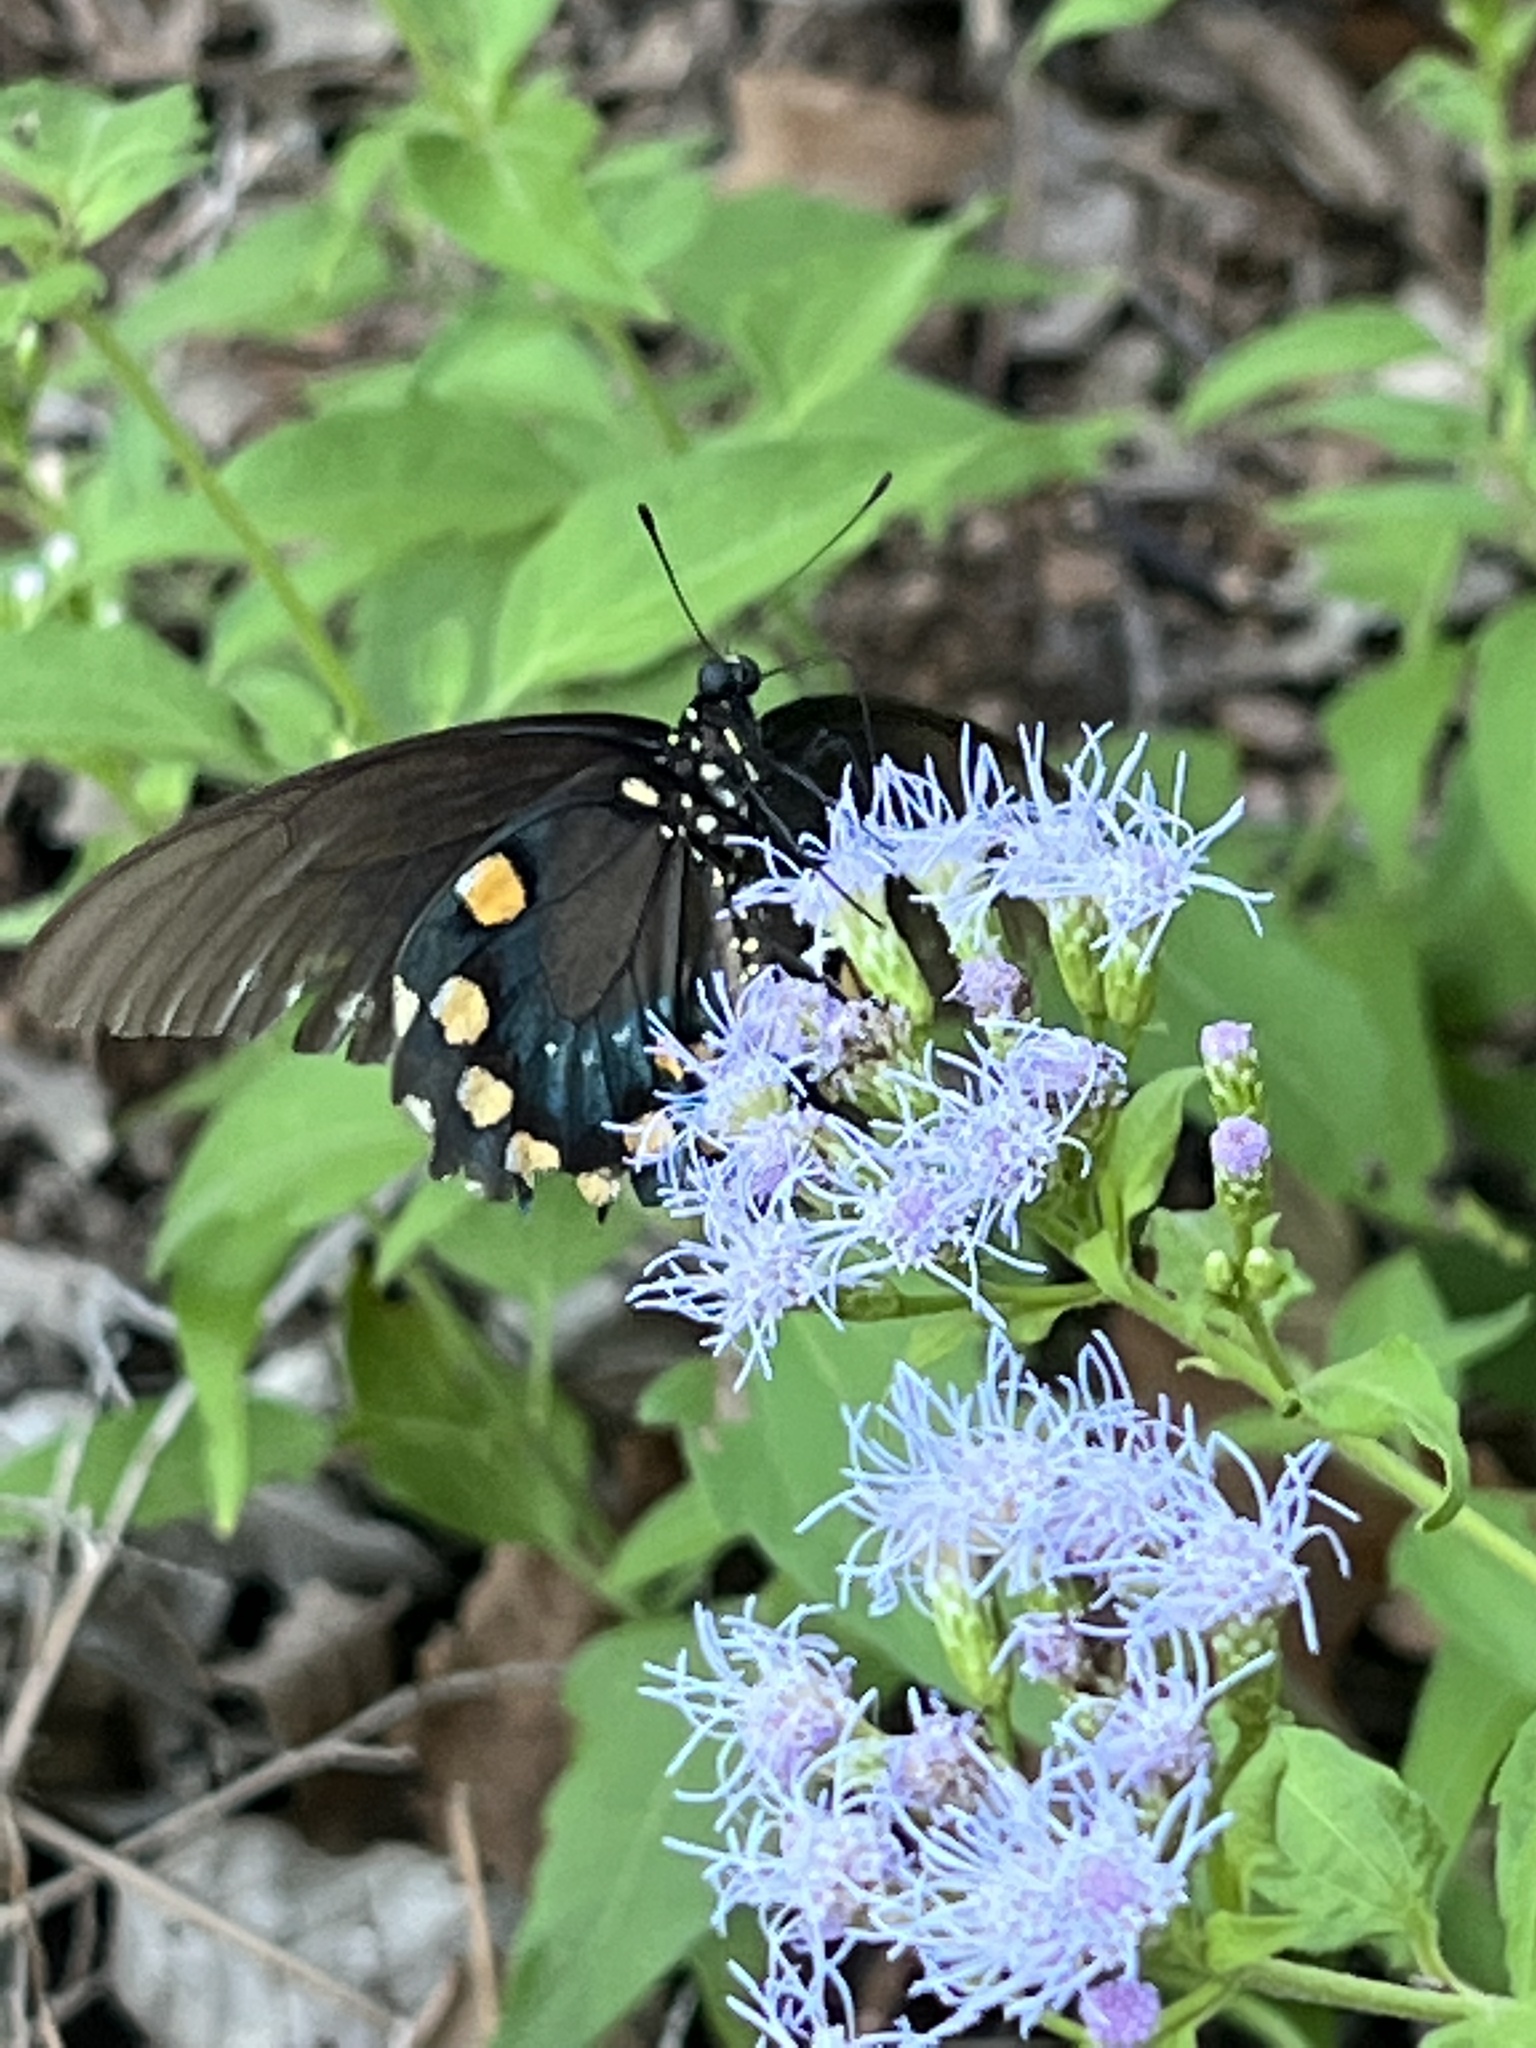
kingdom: Animalia
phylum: Arthropoda
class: Insecta
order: Lepidoptera
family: Papilionidae
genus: Battus
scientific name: Battus philenor
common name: Pipevine swallowtail
